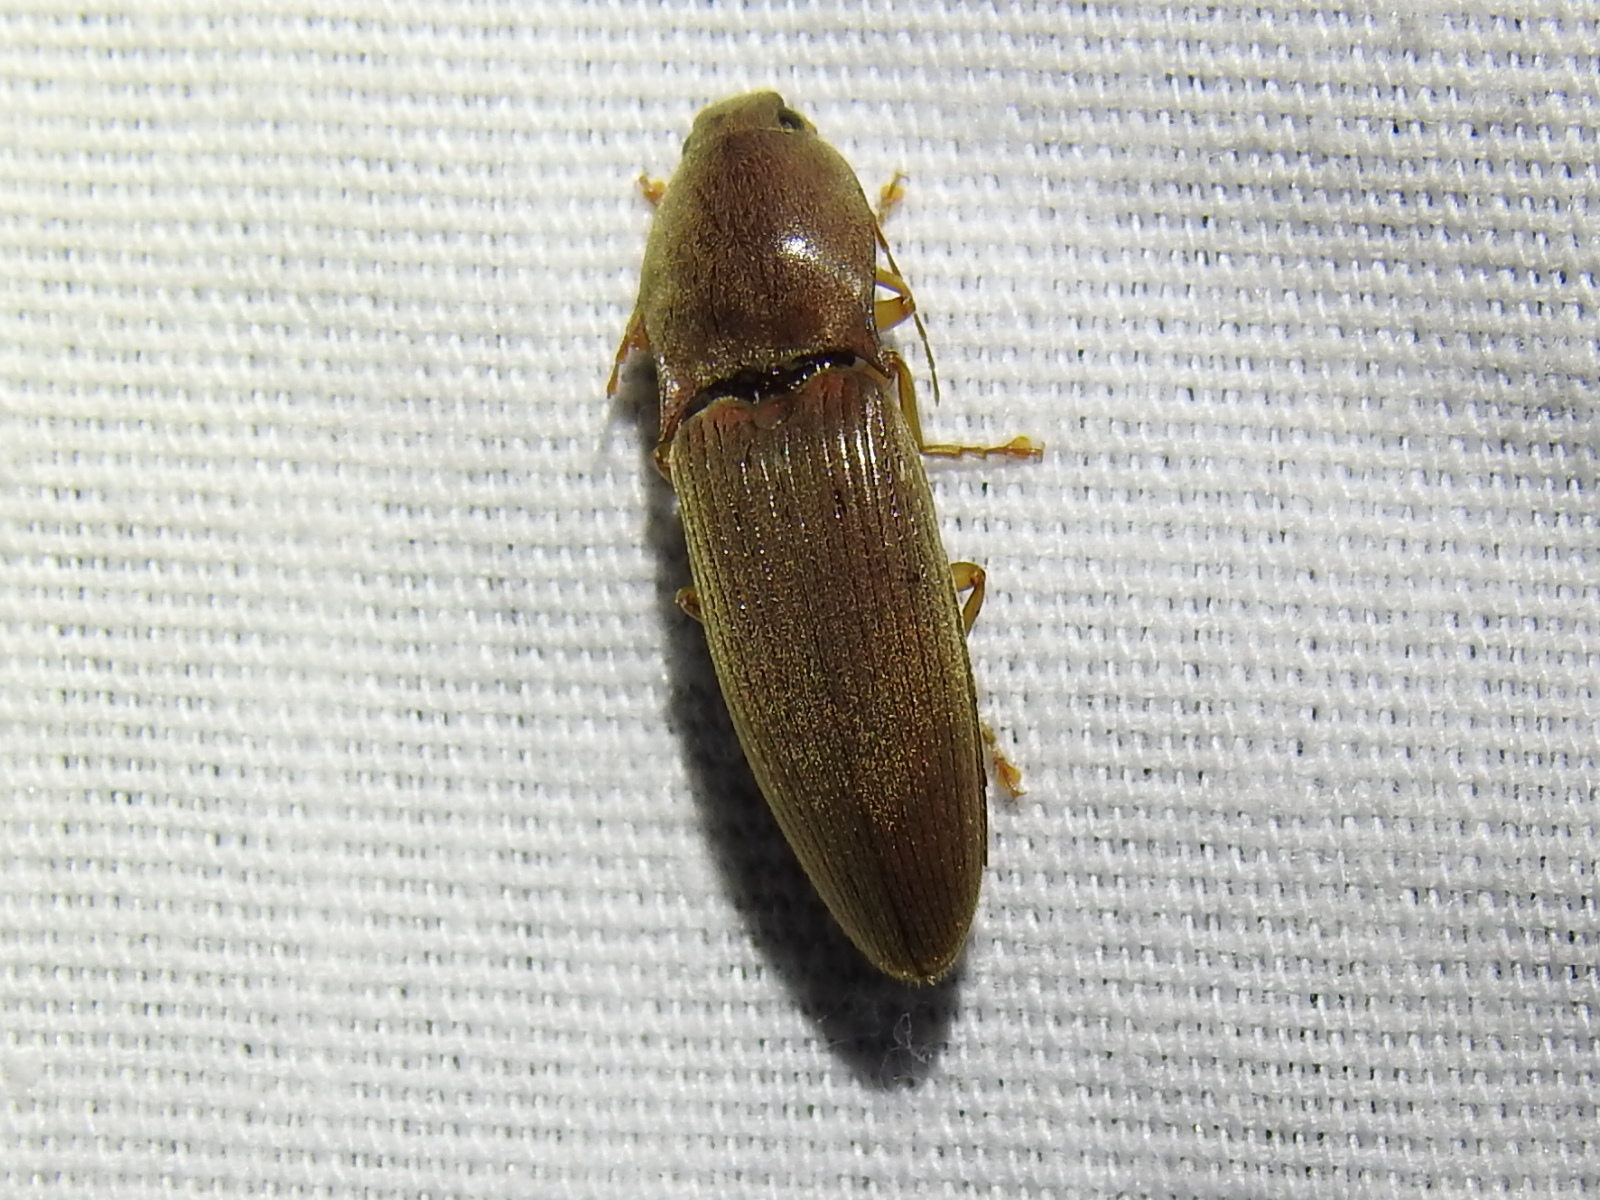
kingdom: Animalia
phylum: Arthropoda
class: Insecta
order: Coleoptera
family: Elateridae
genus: Monocrepidius
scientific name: Monocrepidius lividus
